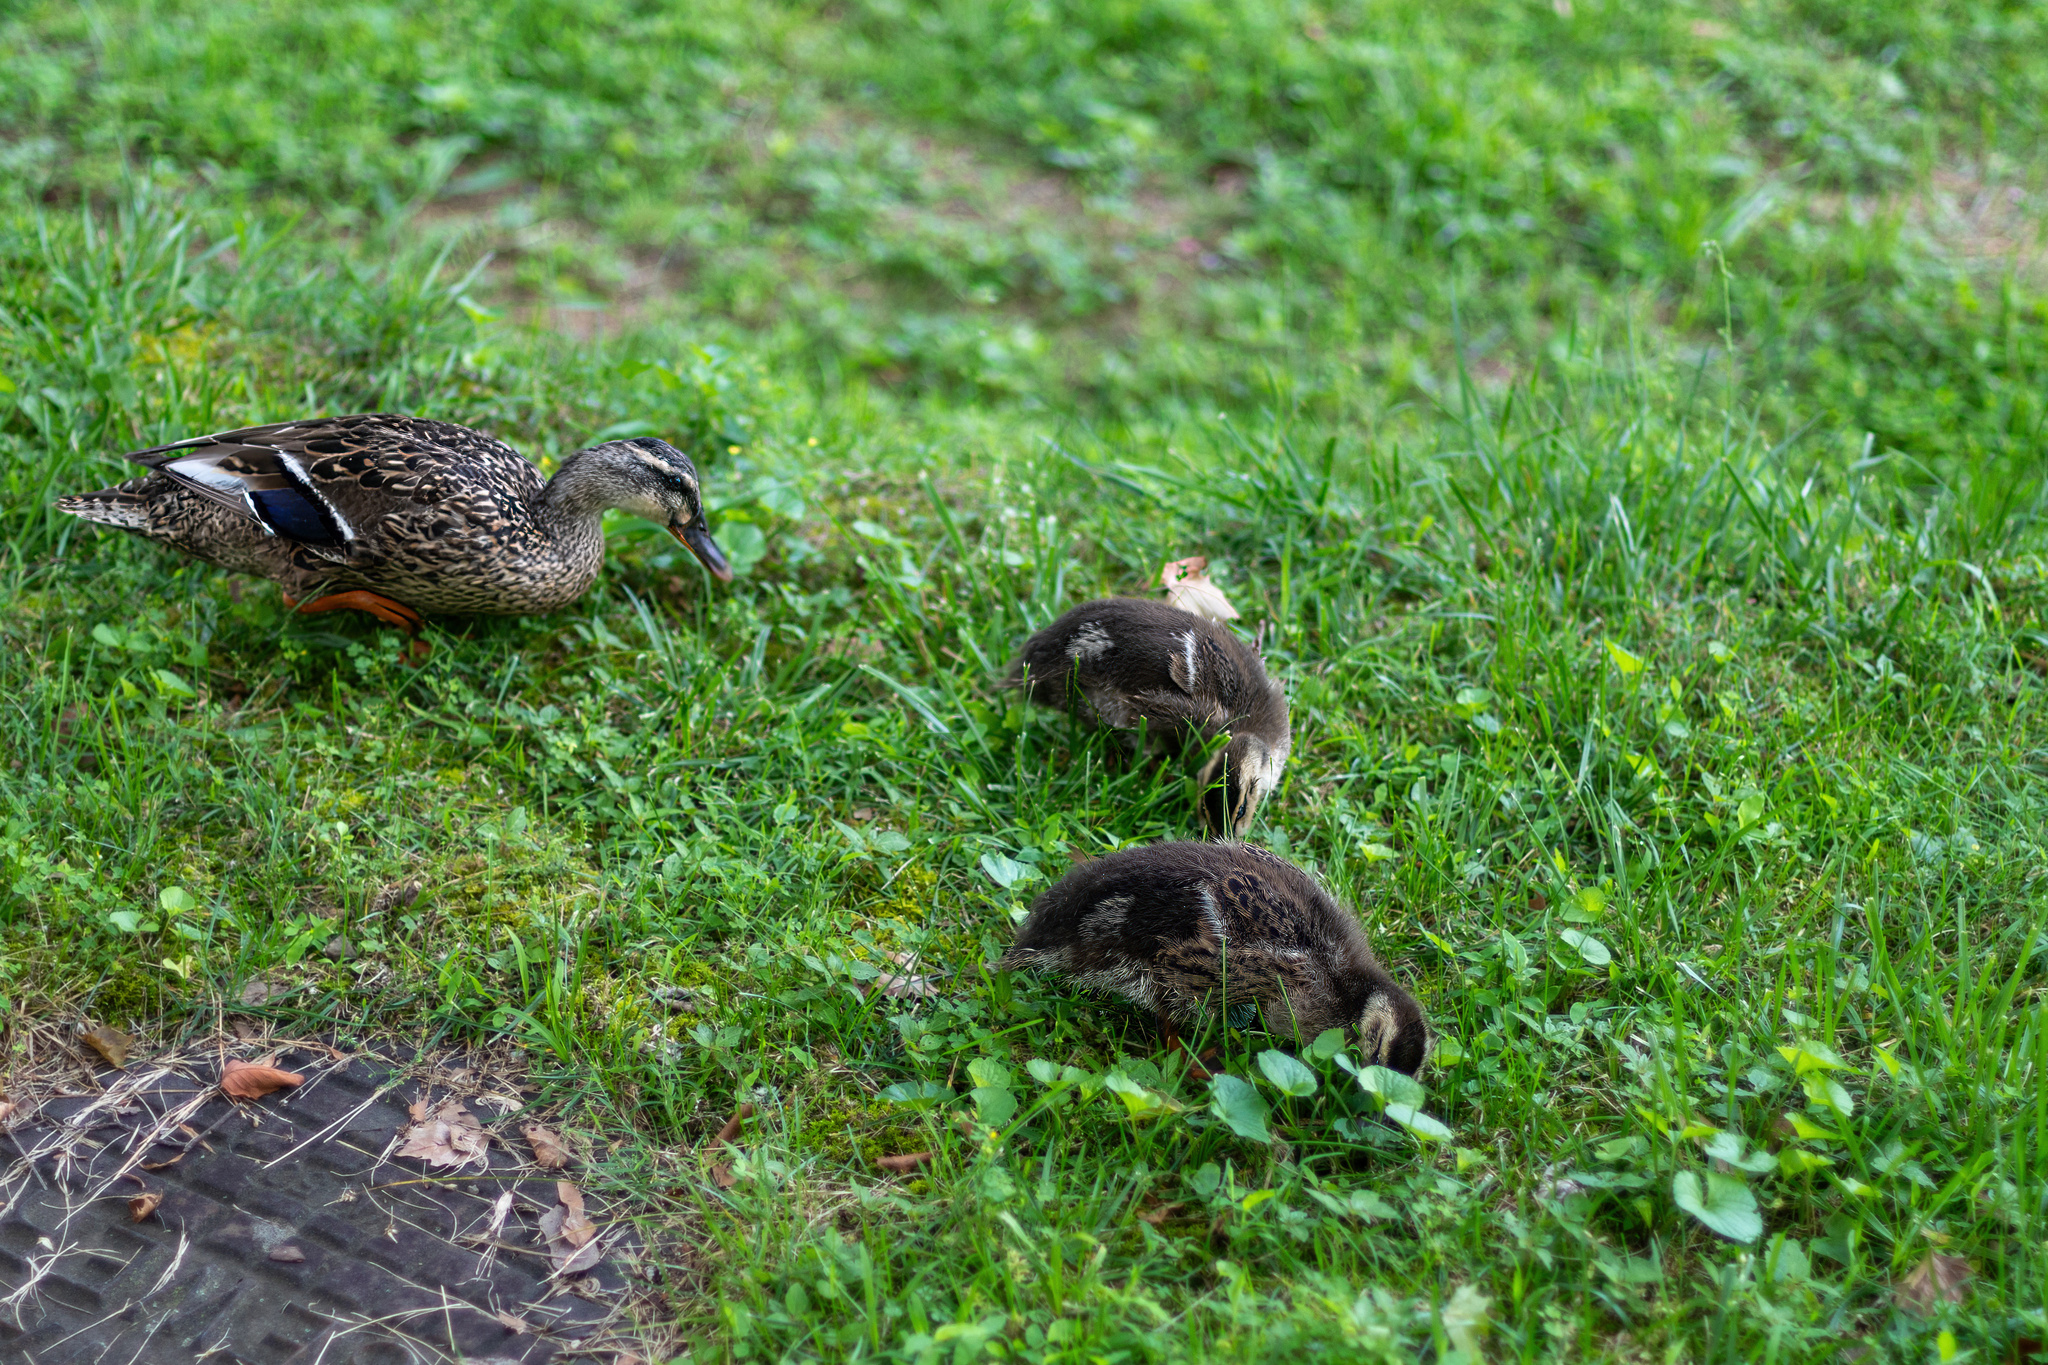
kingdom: Animalia
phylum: Chordata
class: Aves
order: Anseriformes
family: Anatidae
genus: Anas
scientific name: Anas platyrhynchos
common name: Mallard
